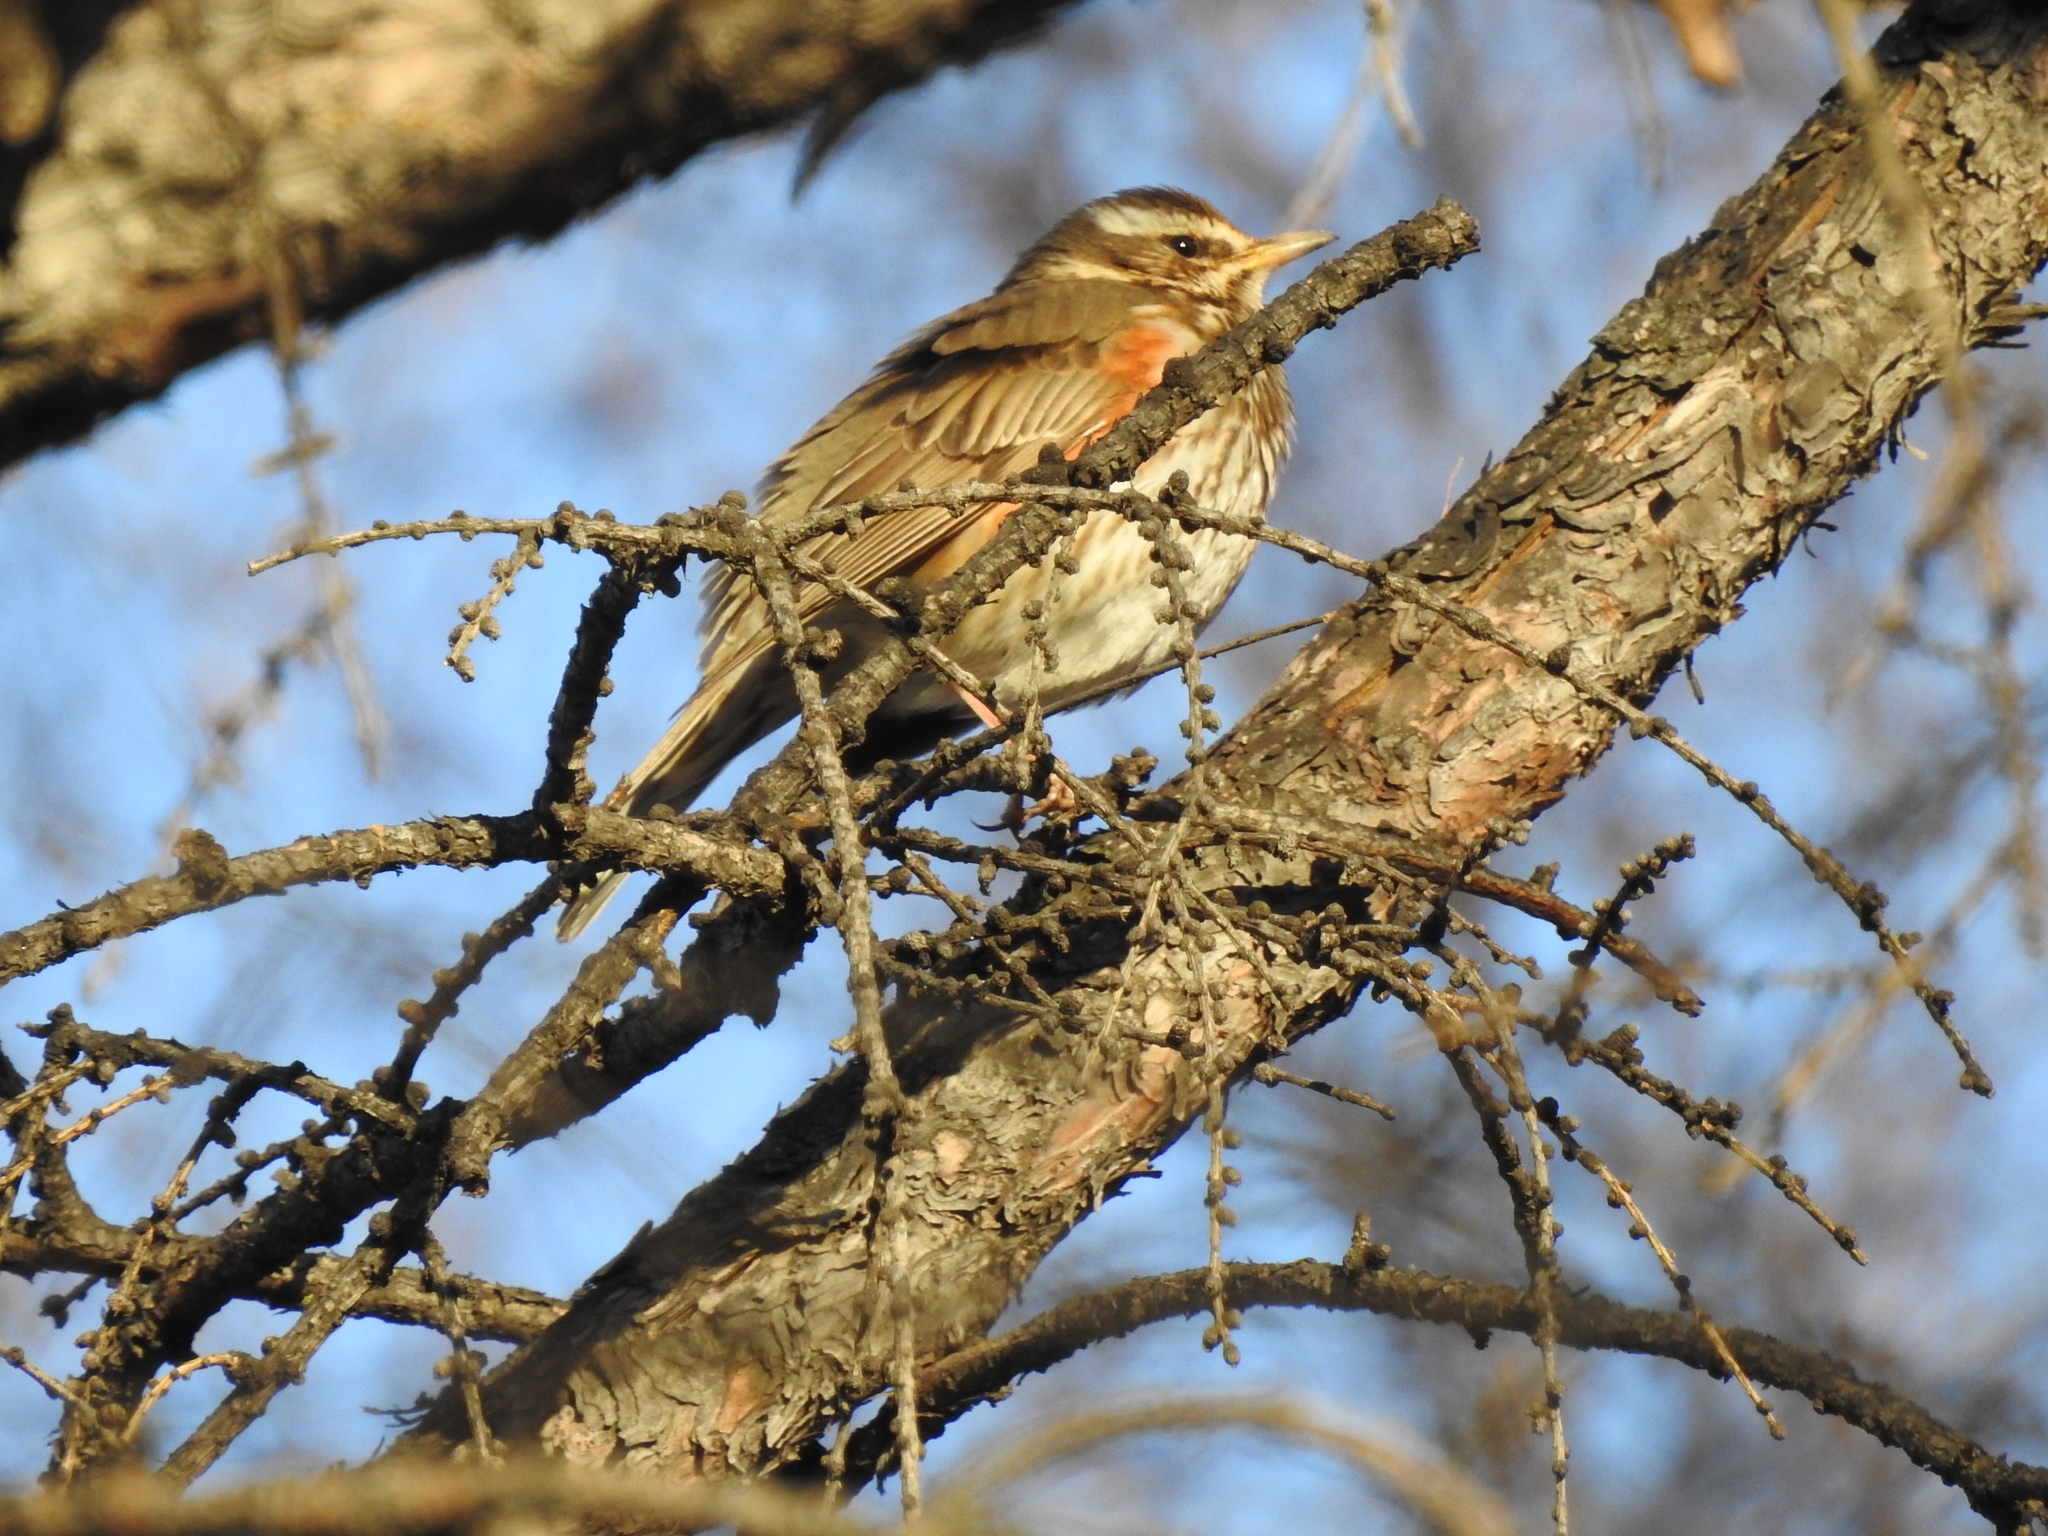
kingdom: Animalia
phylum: Chordata
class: Aves
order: Passeriformes
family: Turdidae
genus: Turdus
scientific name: Turdus iliacus
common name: Redwing
